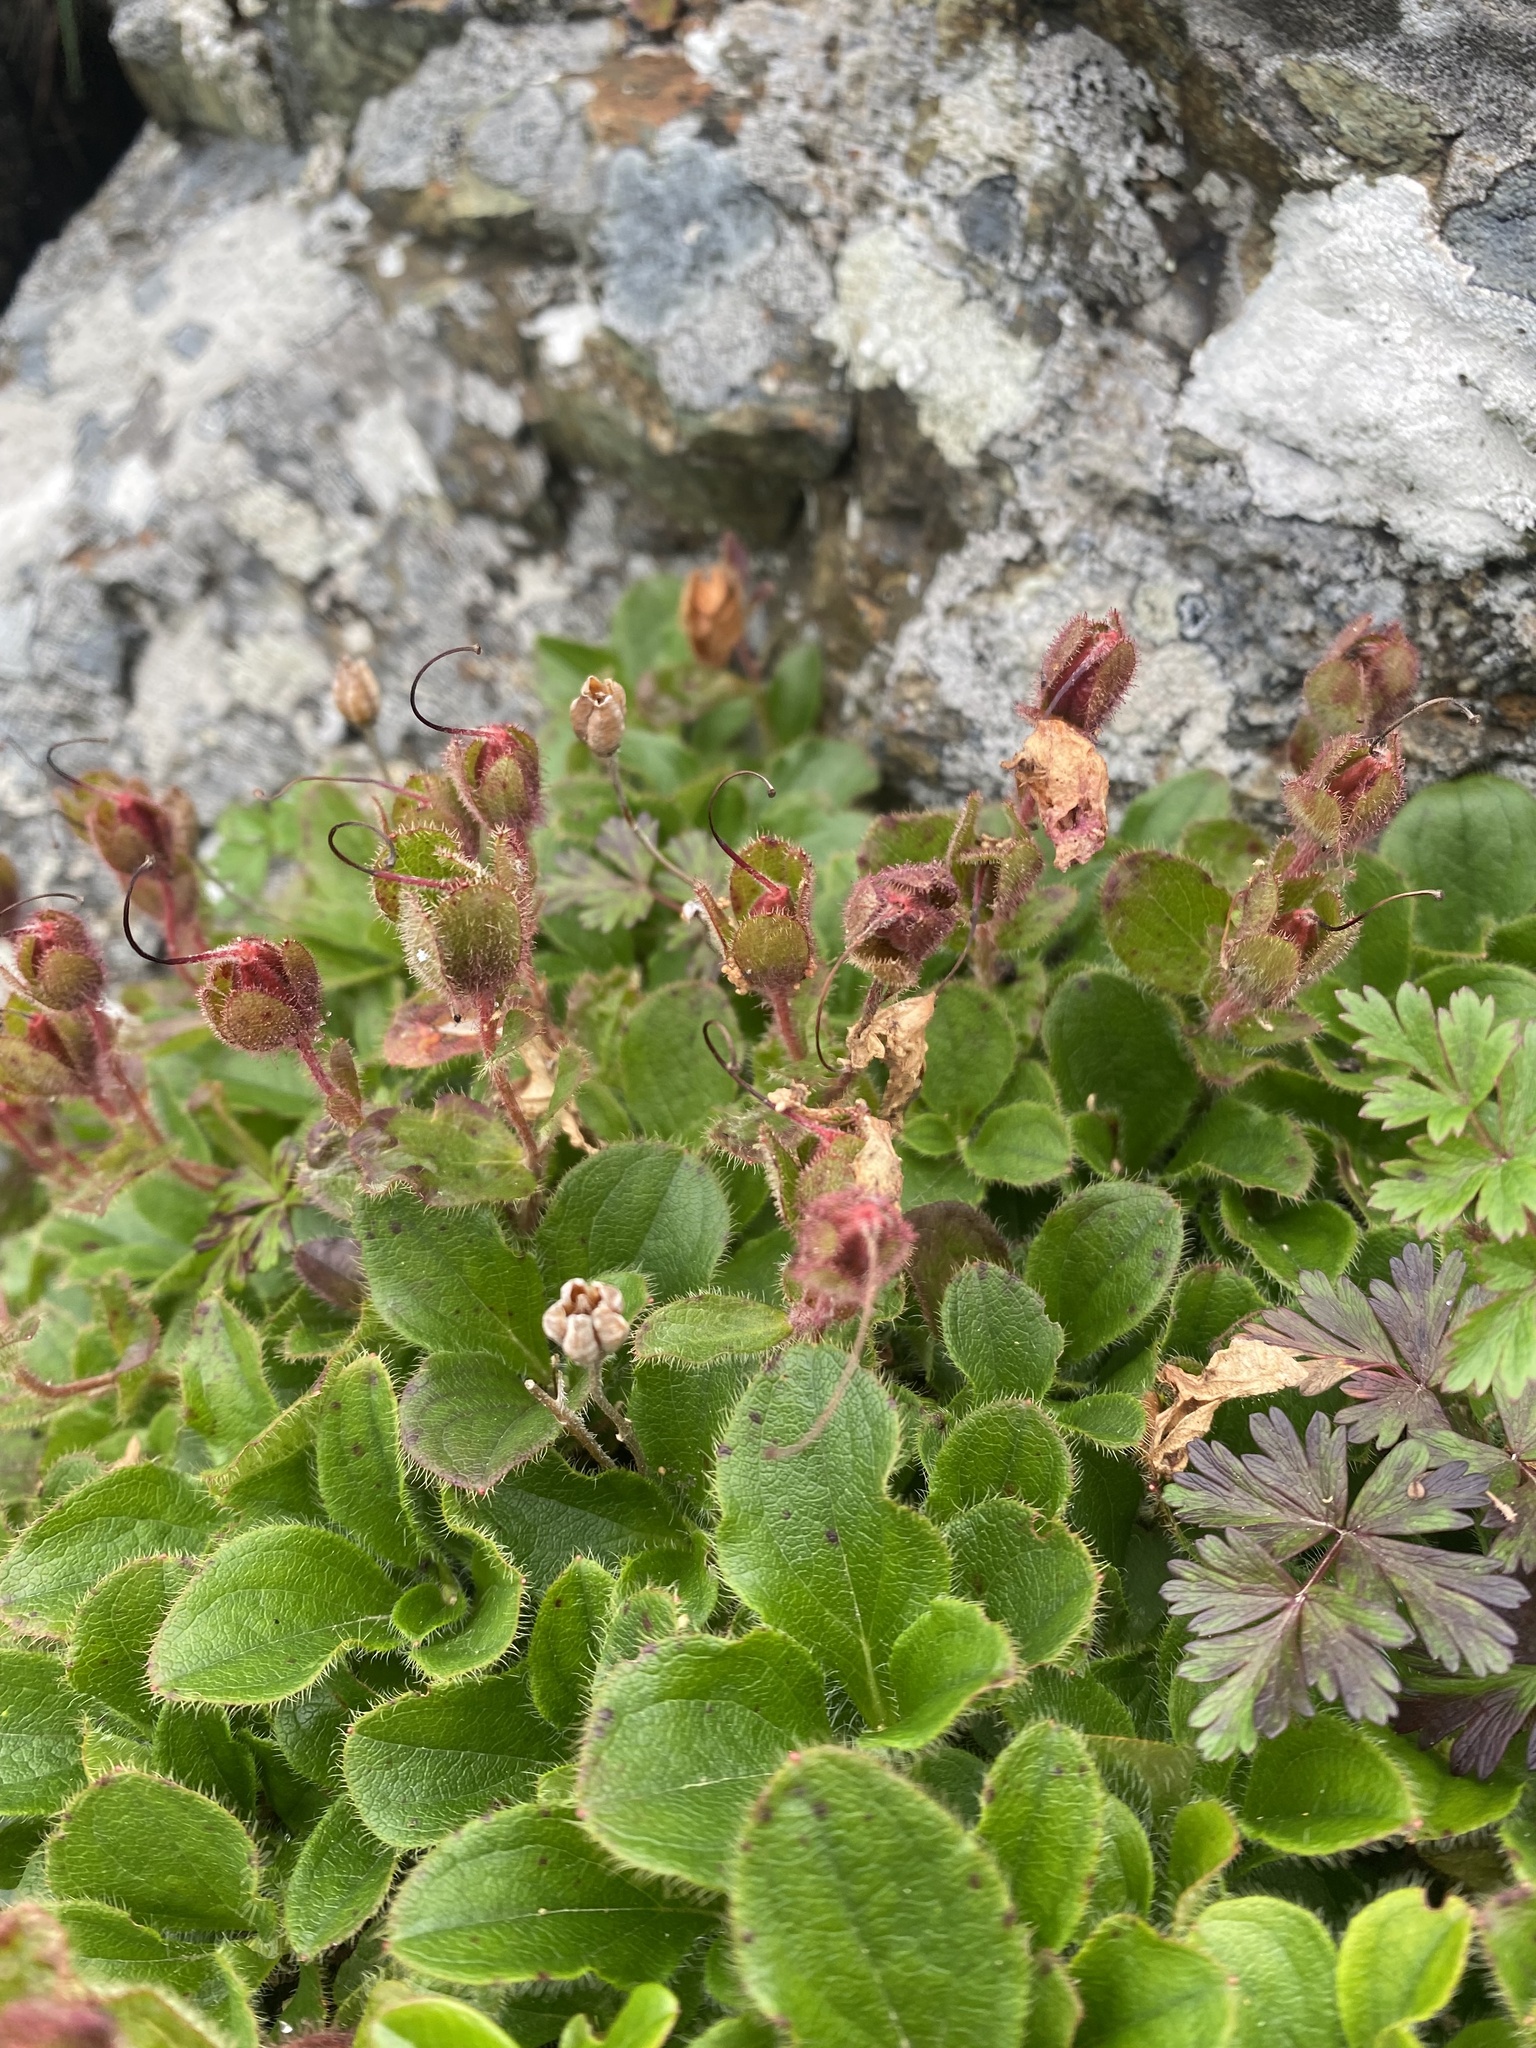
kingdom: Plantae
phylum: Tracheophyta
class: Magnoliopsida
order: Ericales
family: Ericaceae
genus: Rhododendron
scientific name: Rhododendron camtschaticum
